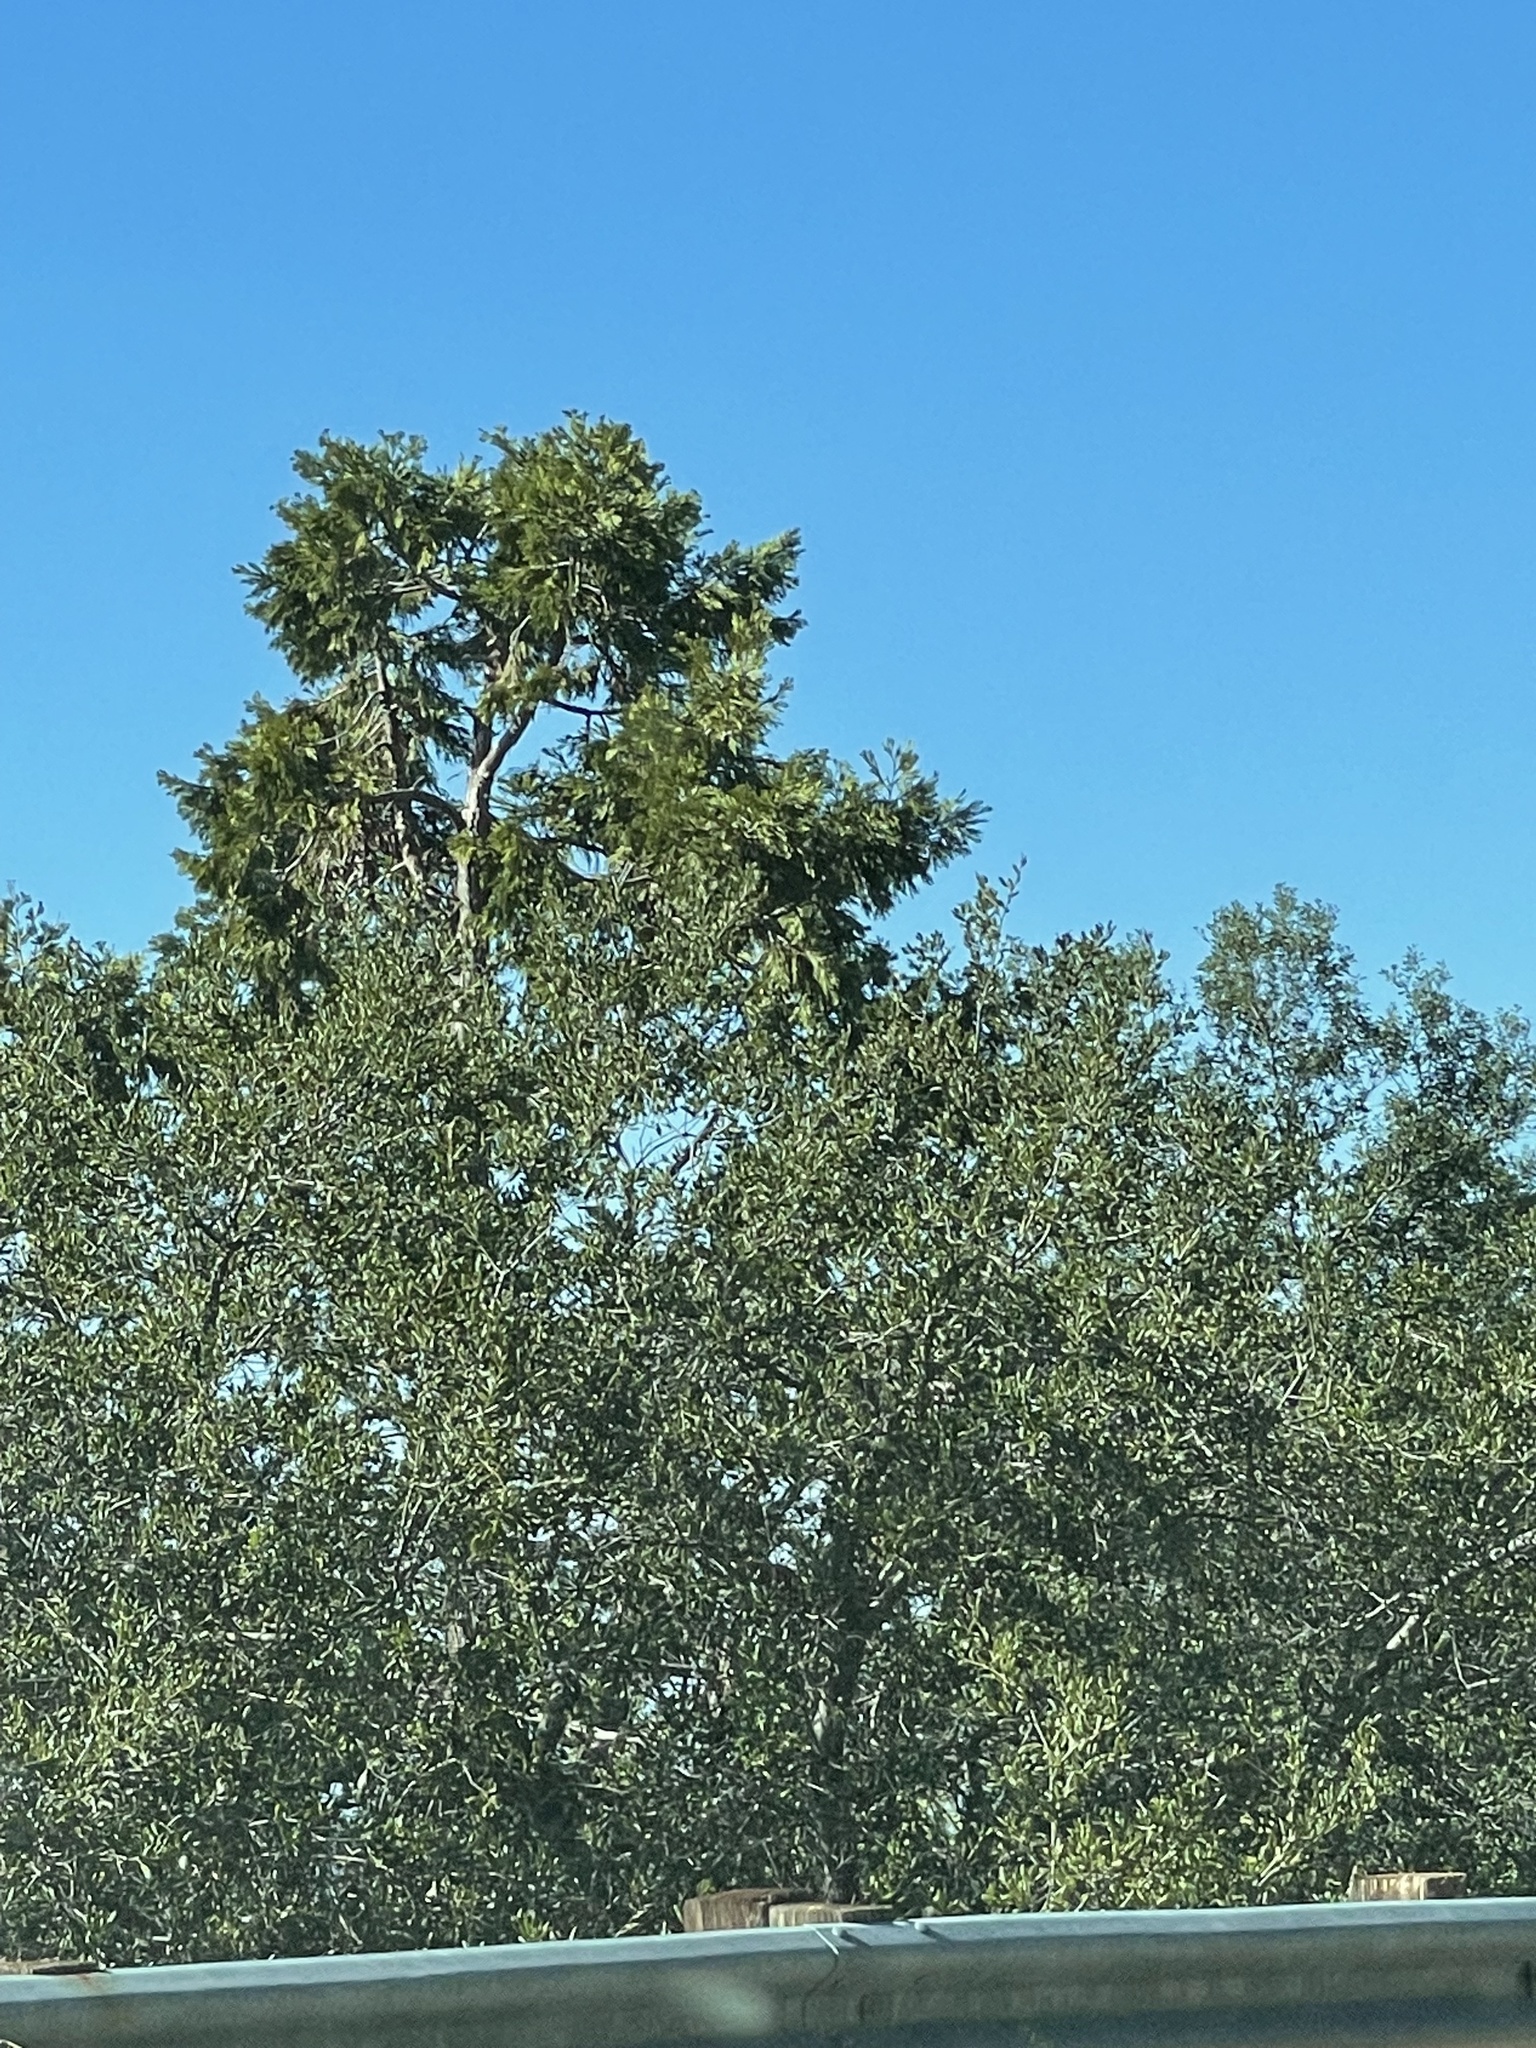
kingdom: Plantae
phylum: Tracheophyta
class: Pinopsida
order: Pinales
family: Cupressaceae
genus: Calocedrus
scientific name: Calocedrus decurrens
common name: Californian incense-cedar
